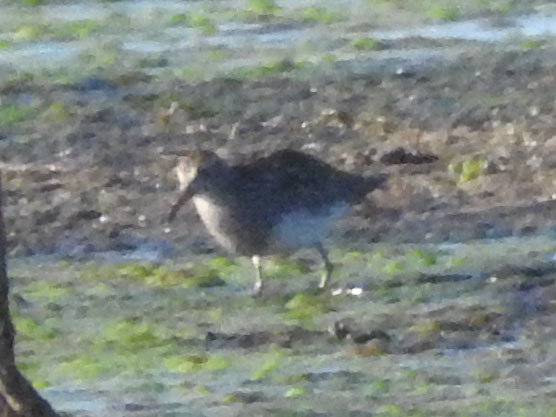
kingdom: Animalia
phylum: Chordata
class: Aves
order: Charadriiformes
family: Scolopacidae
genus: Calidris
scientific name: Calidris melanotos
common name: Pectoral sandpiper
